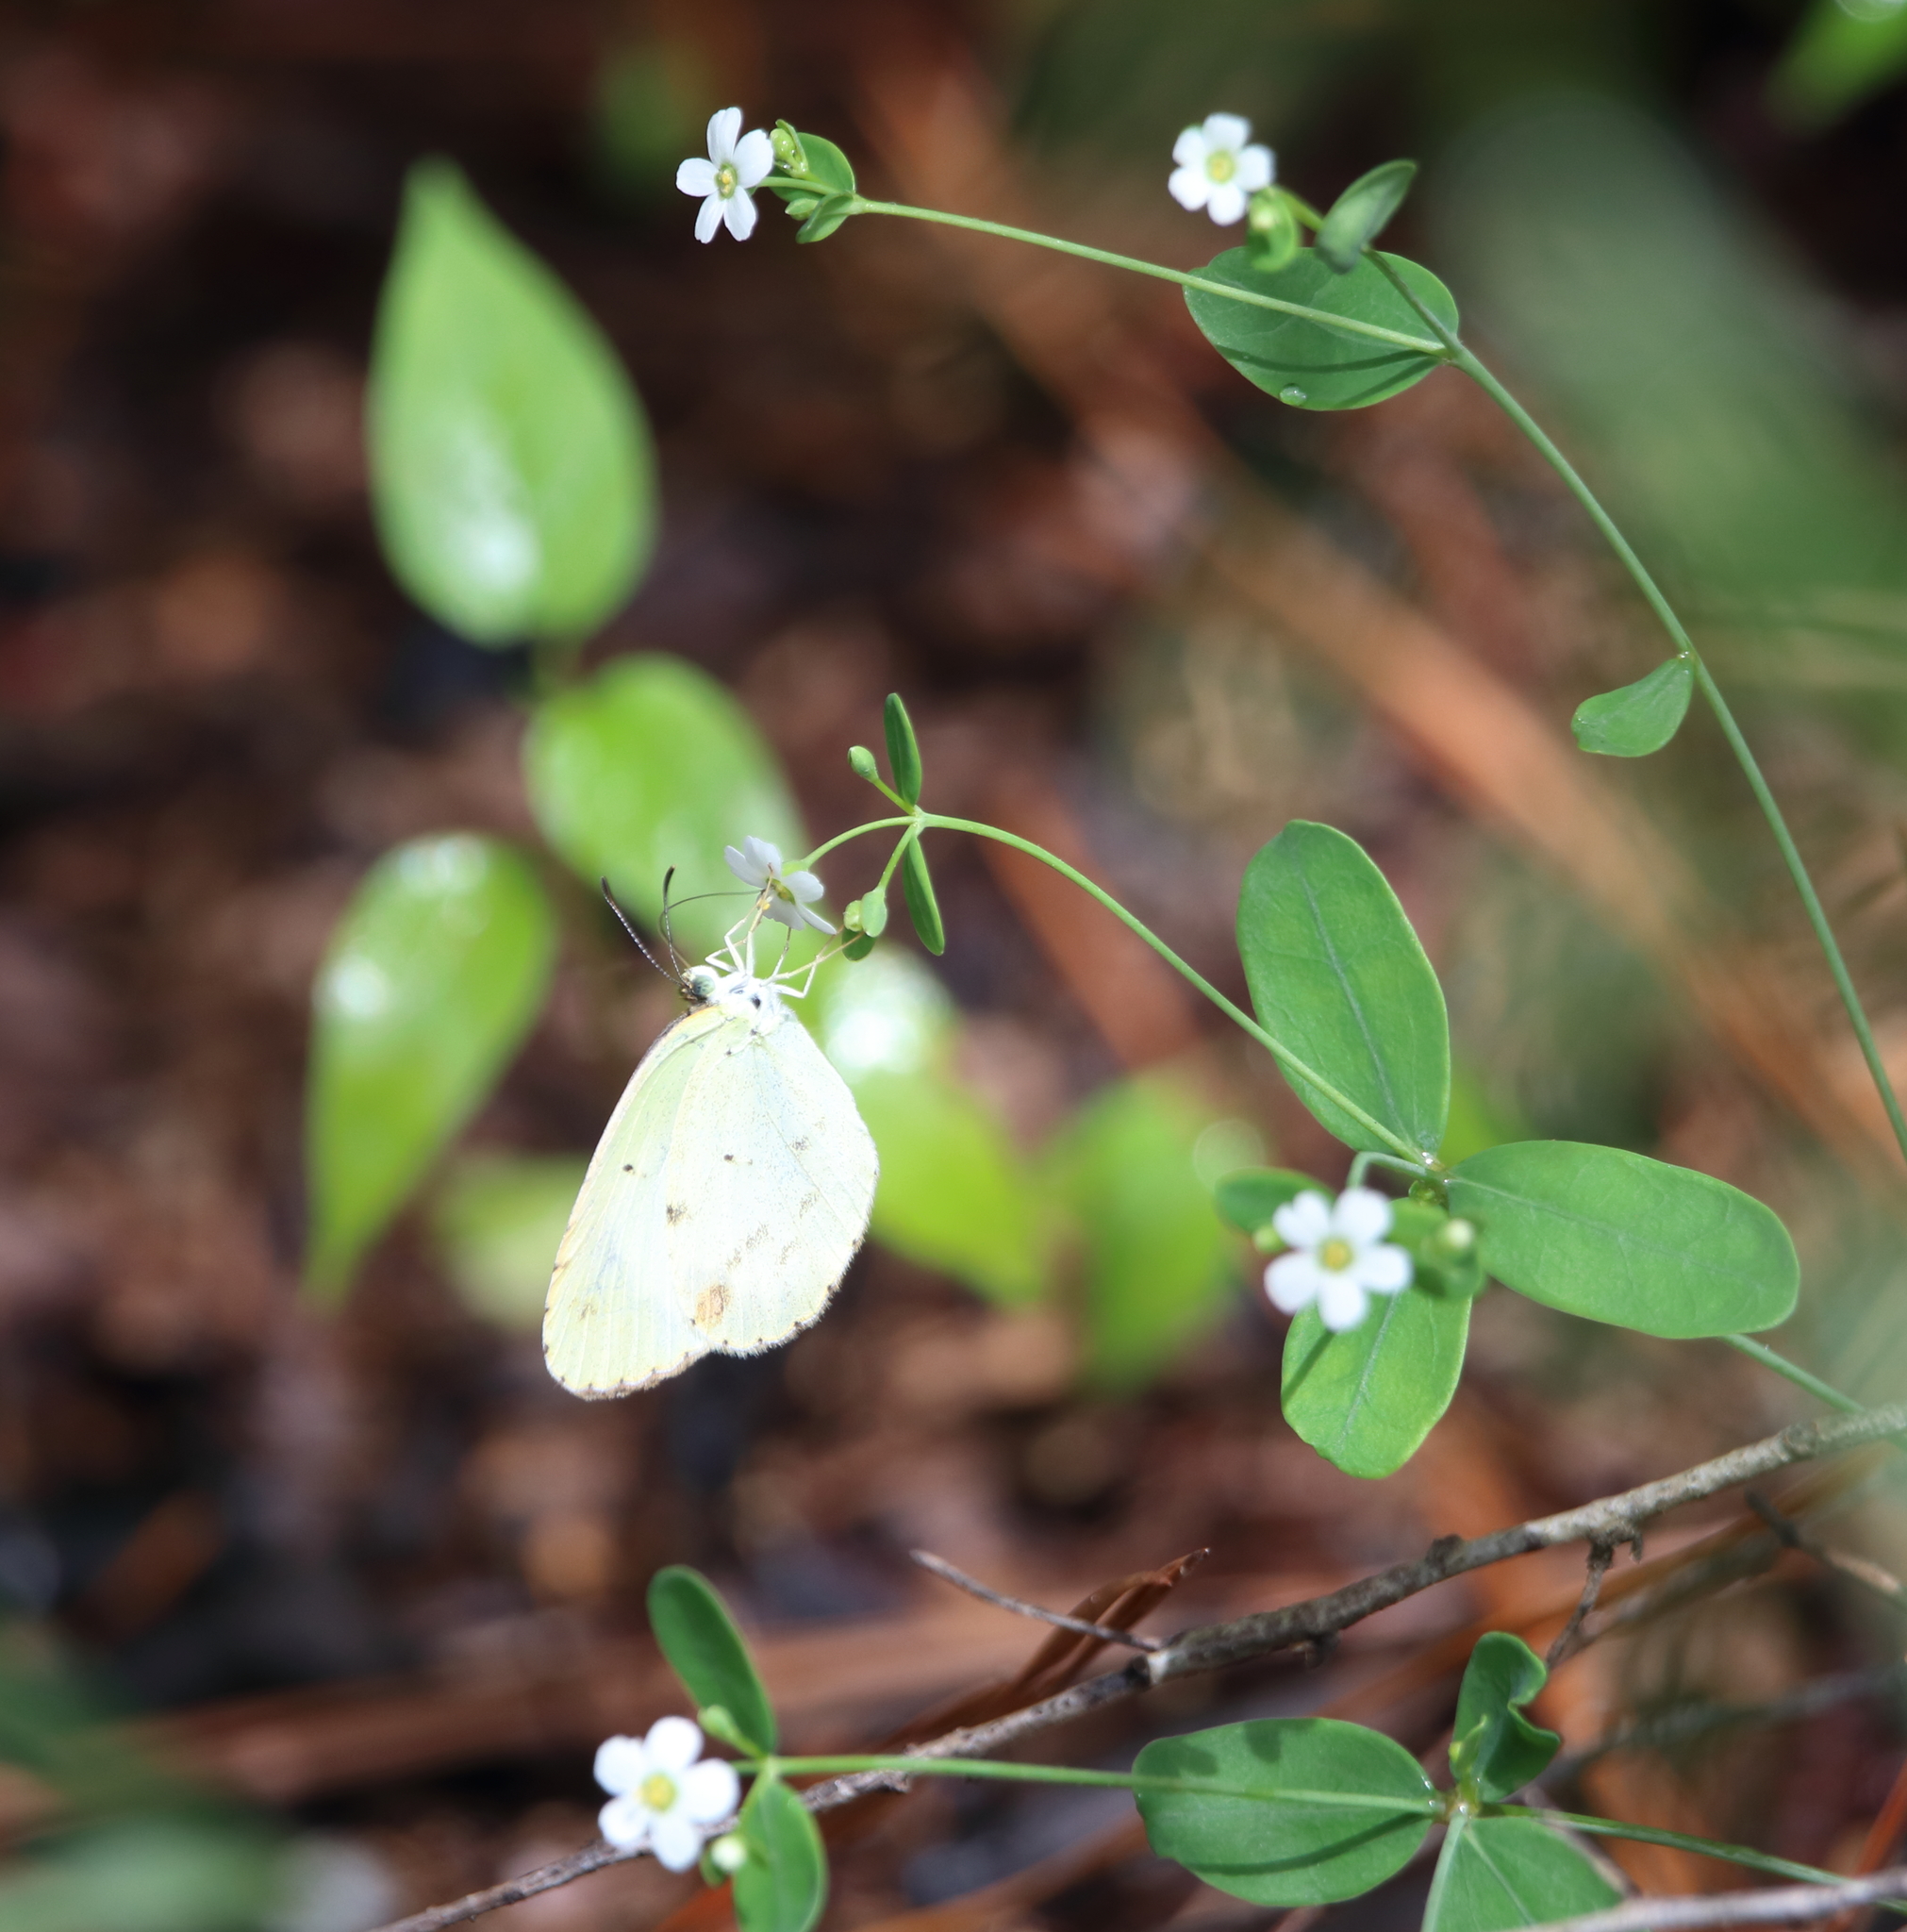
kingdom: Animalia
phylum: Arthropoda
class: Insecta
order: Lepidoptera
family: Pieridae
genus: Pyrisitia
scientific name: Pyrisitia lisa
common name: Little yellow
